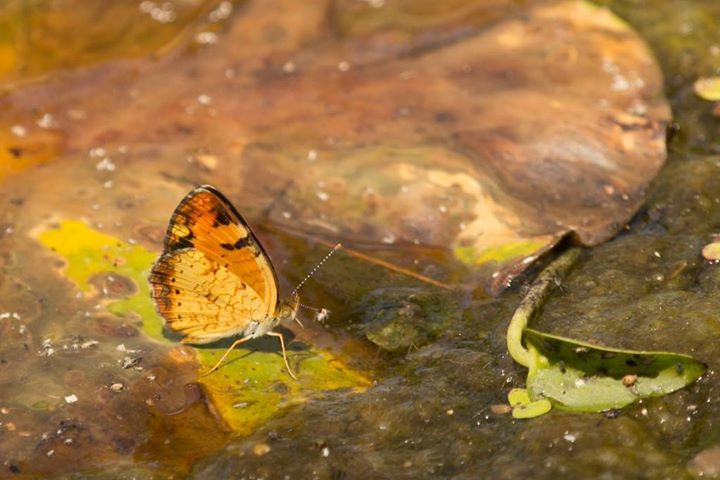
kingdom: Animalia
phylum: Arthropoda
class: Insecta
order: Lepidoptera
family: Nymphalidae
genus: Phyciodes
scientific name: Phyciodes tharos
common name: Pearl crescent
